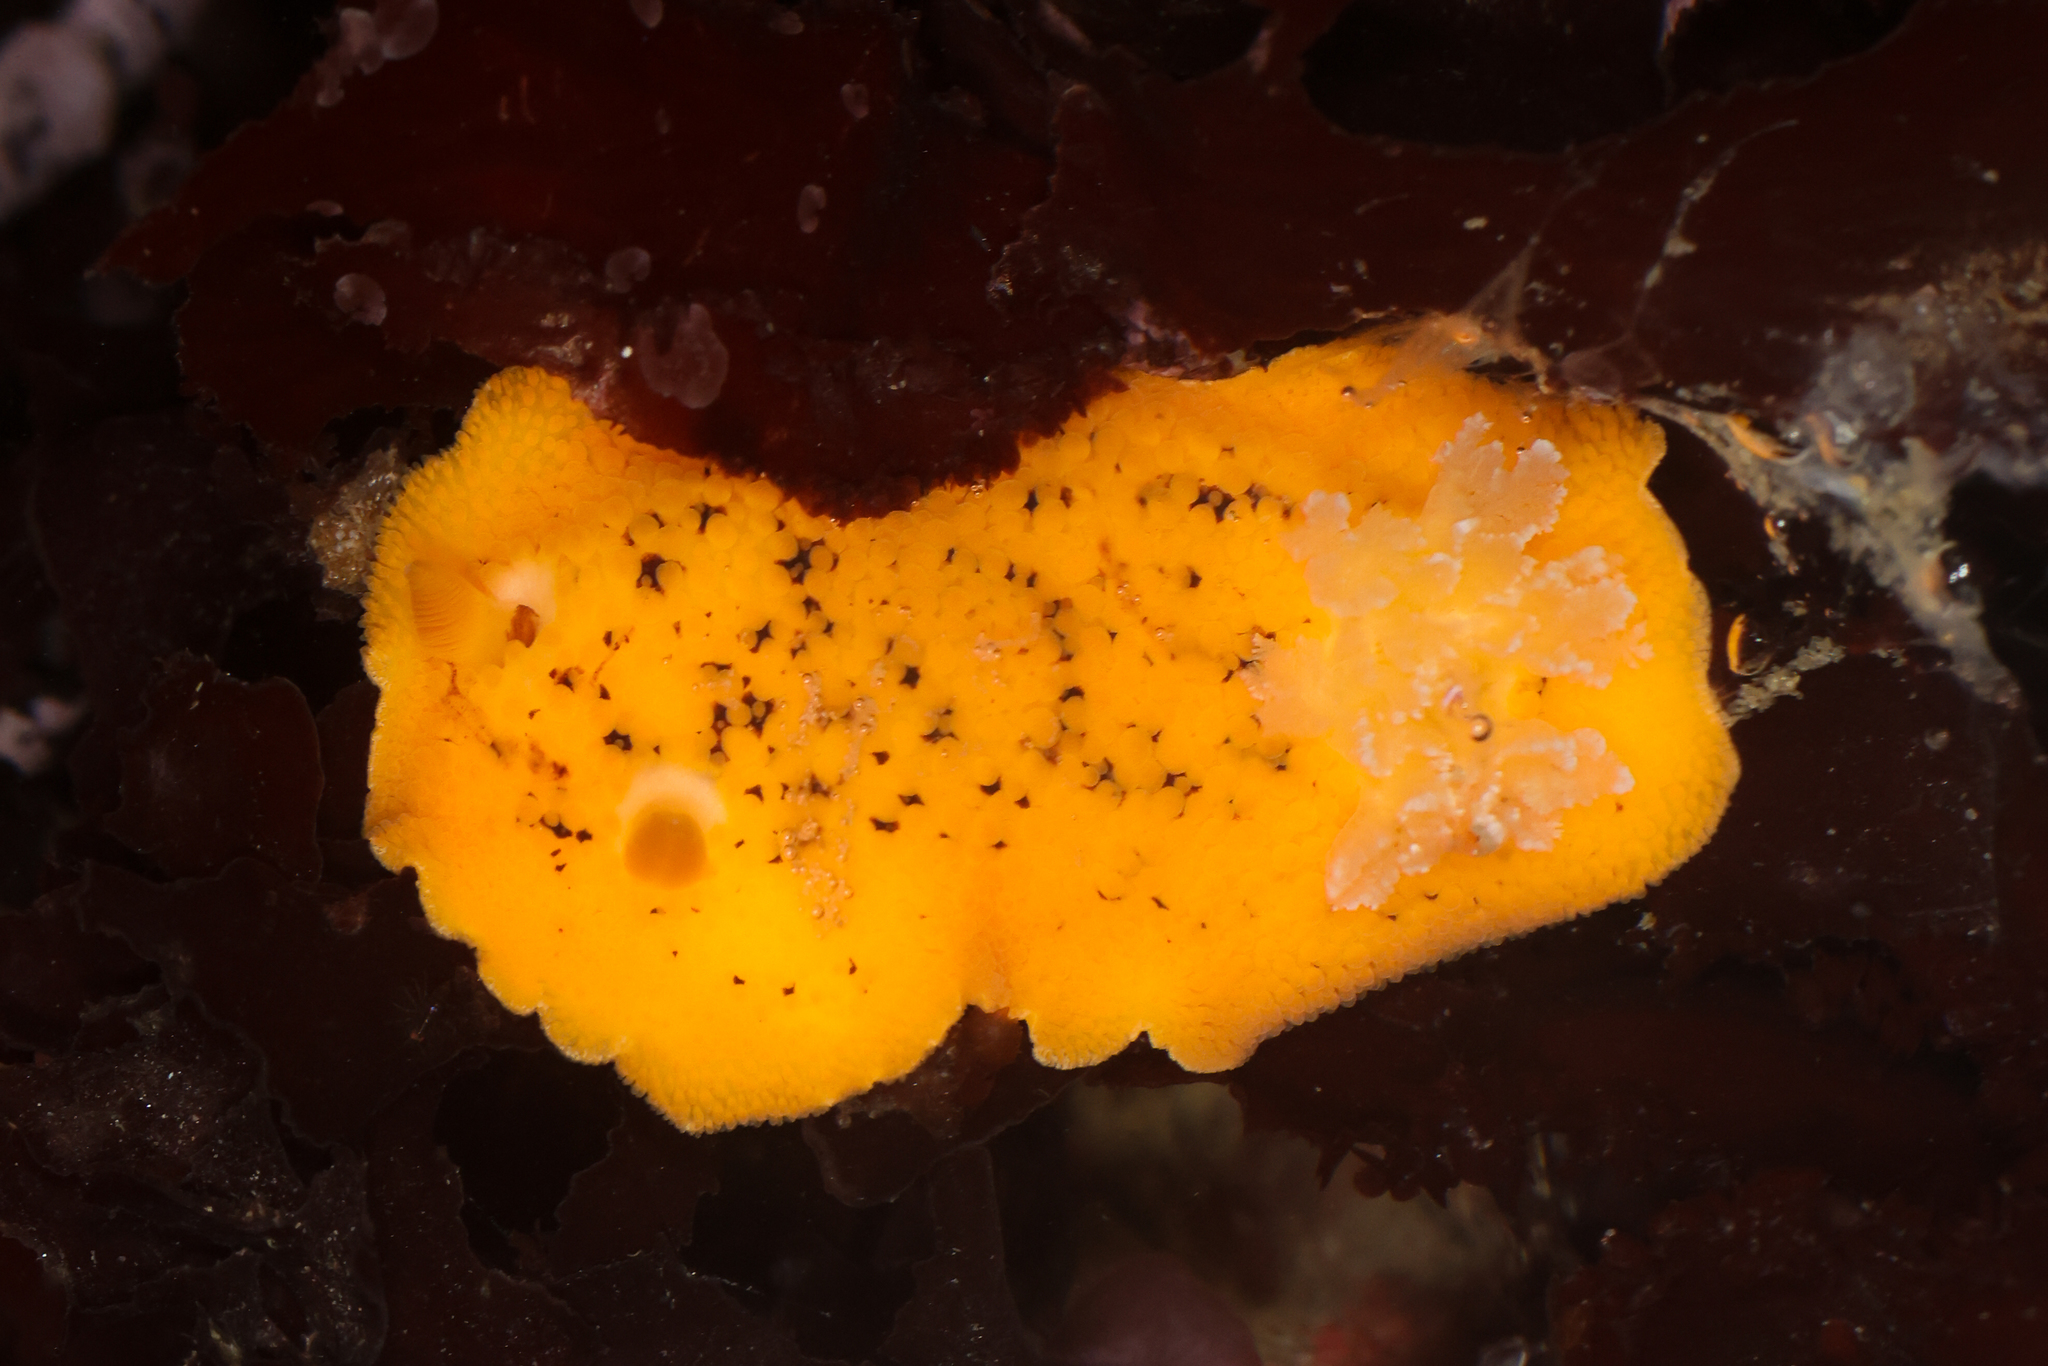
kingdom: Animalia
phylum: Mollusca
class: Gastropoda
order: Nudibranchia
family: Discodorididae
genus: Peltodoris
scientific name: Peltodoris nobilis
